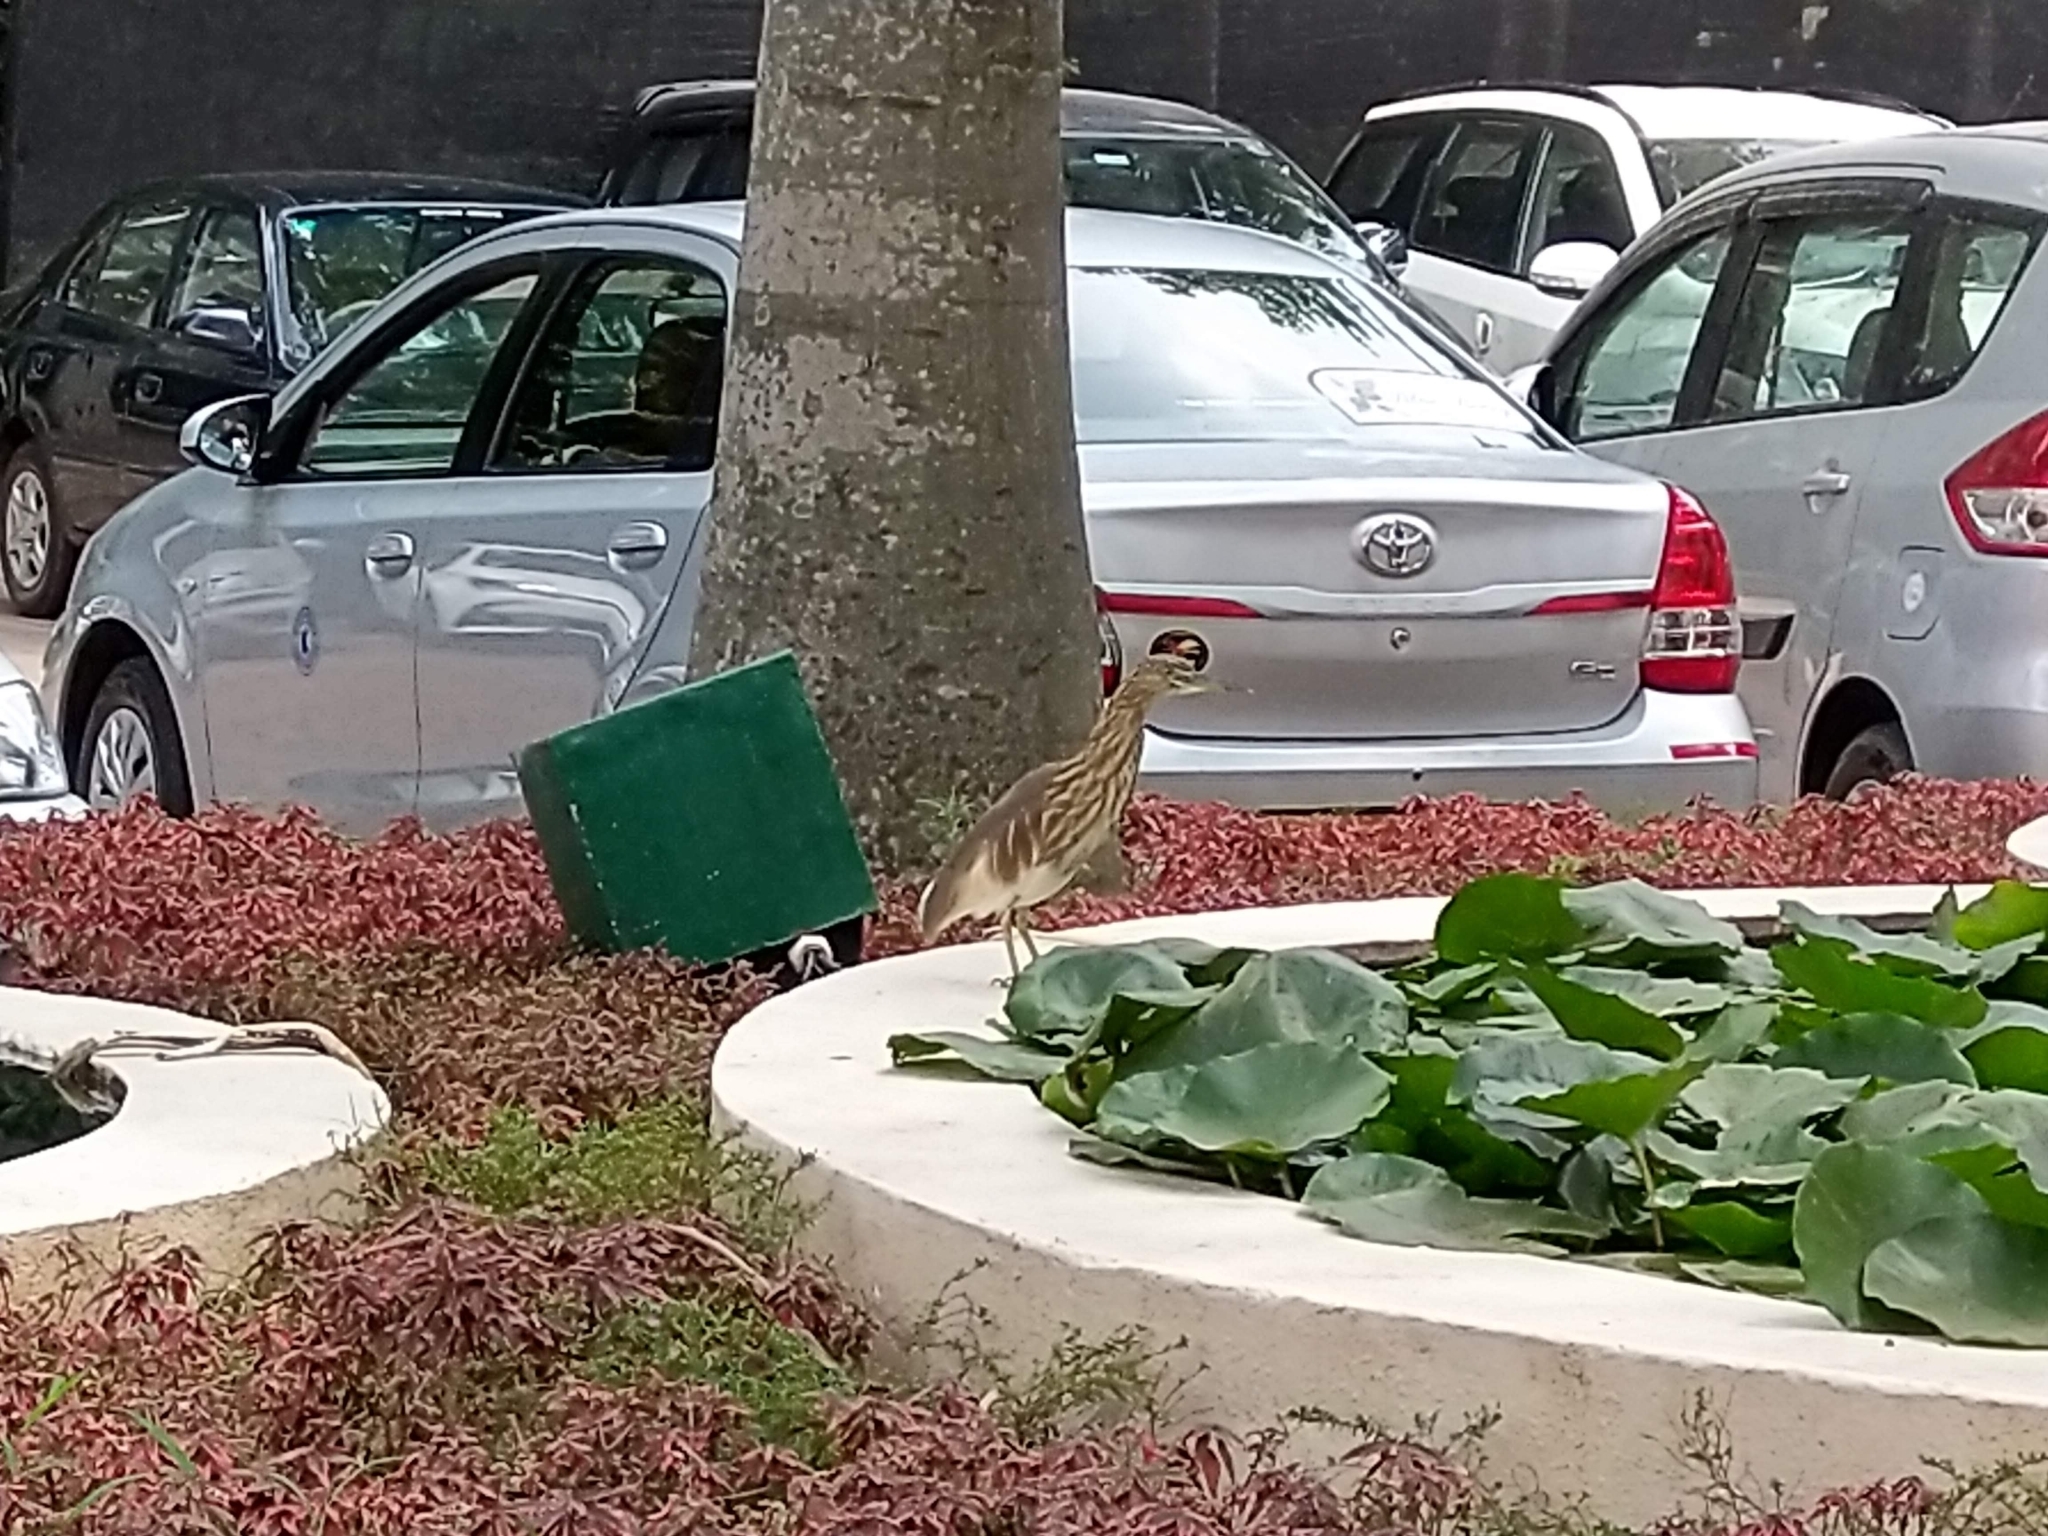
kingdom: Animalia
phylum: Chordata
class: Aves
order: Pelecaniformes
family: Ardeidae
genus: Ardeola
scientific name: Ardeola grayii
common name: Indian pond heron
